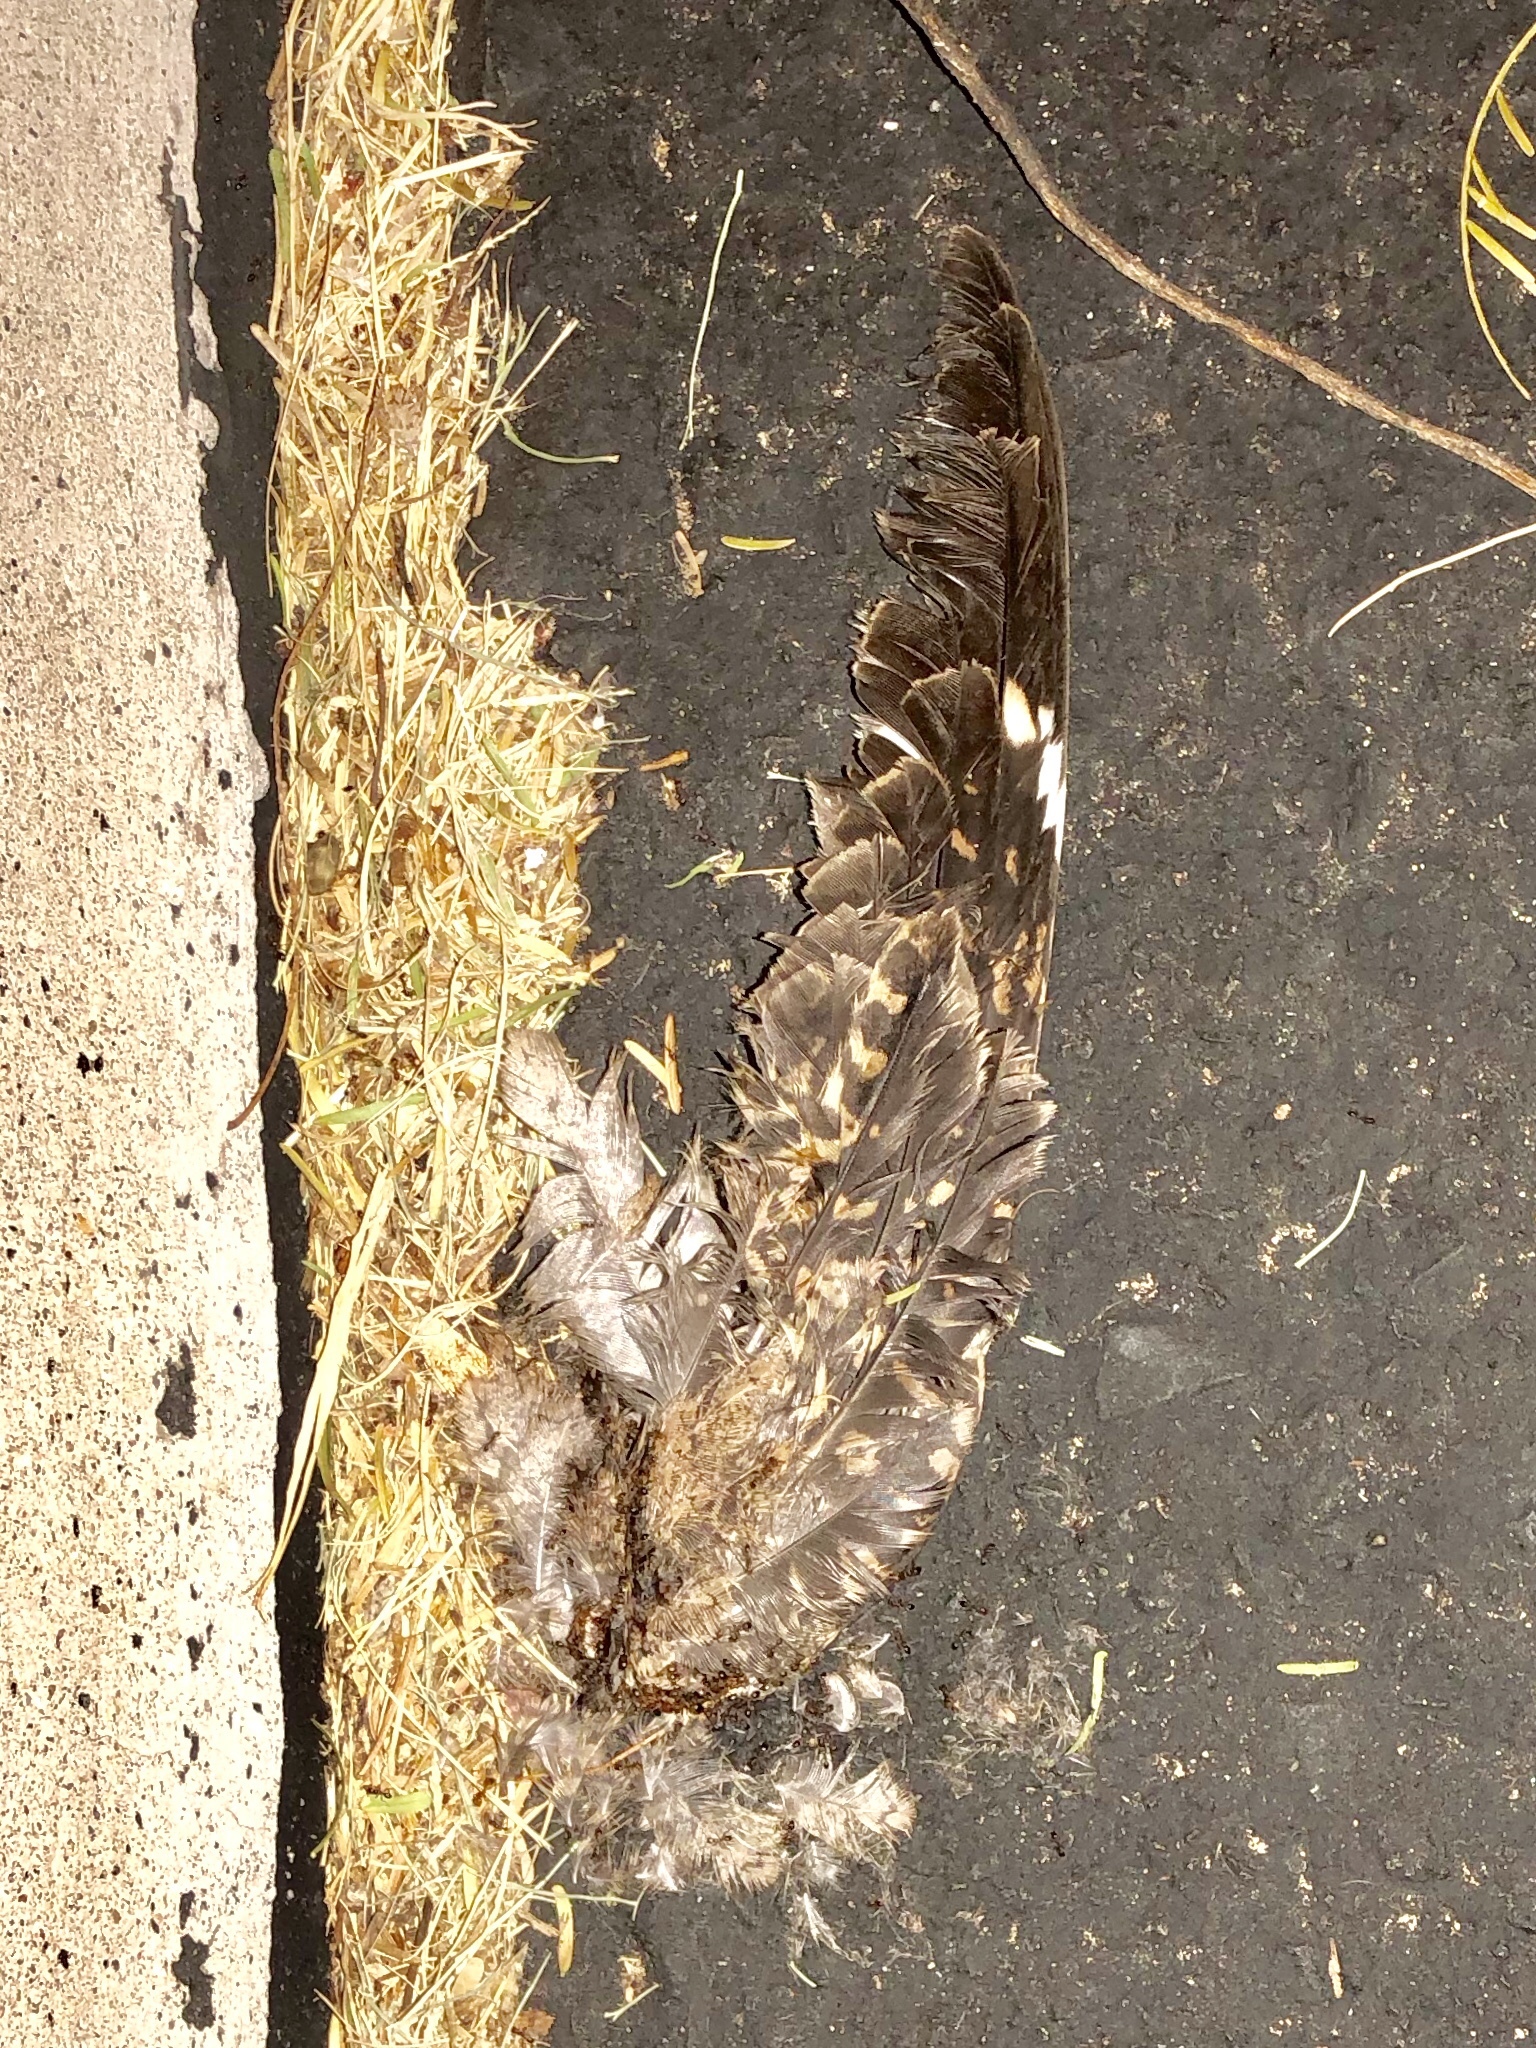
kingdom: Animalia
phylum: Chordata
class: Aves
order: Caprimulgiformes
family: Caprimulgidae
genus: Chordeiles
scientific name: Chordeiles acutipennis
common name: Lesser nighthawk
